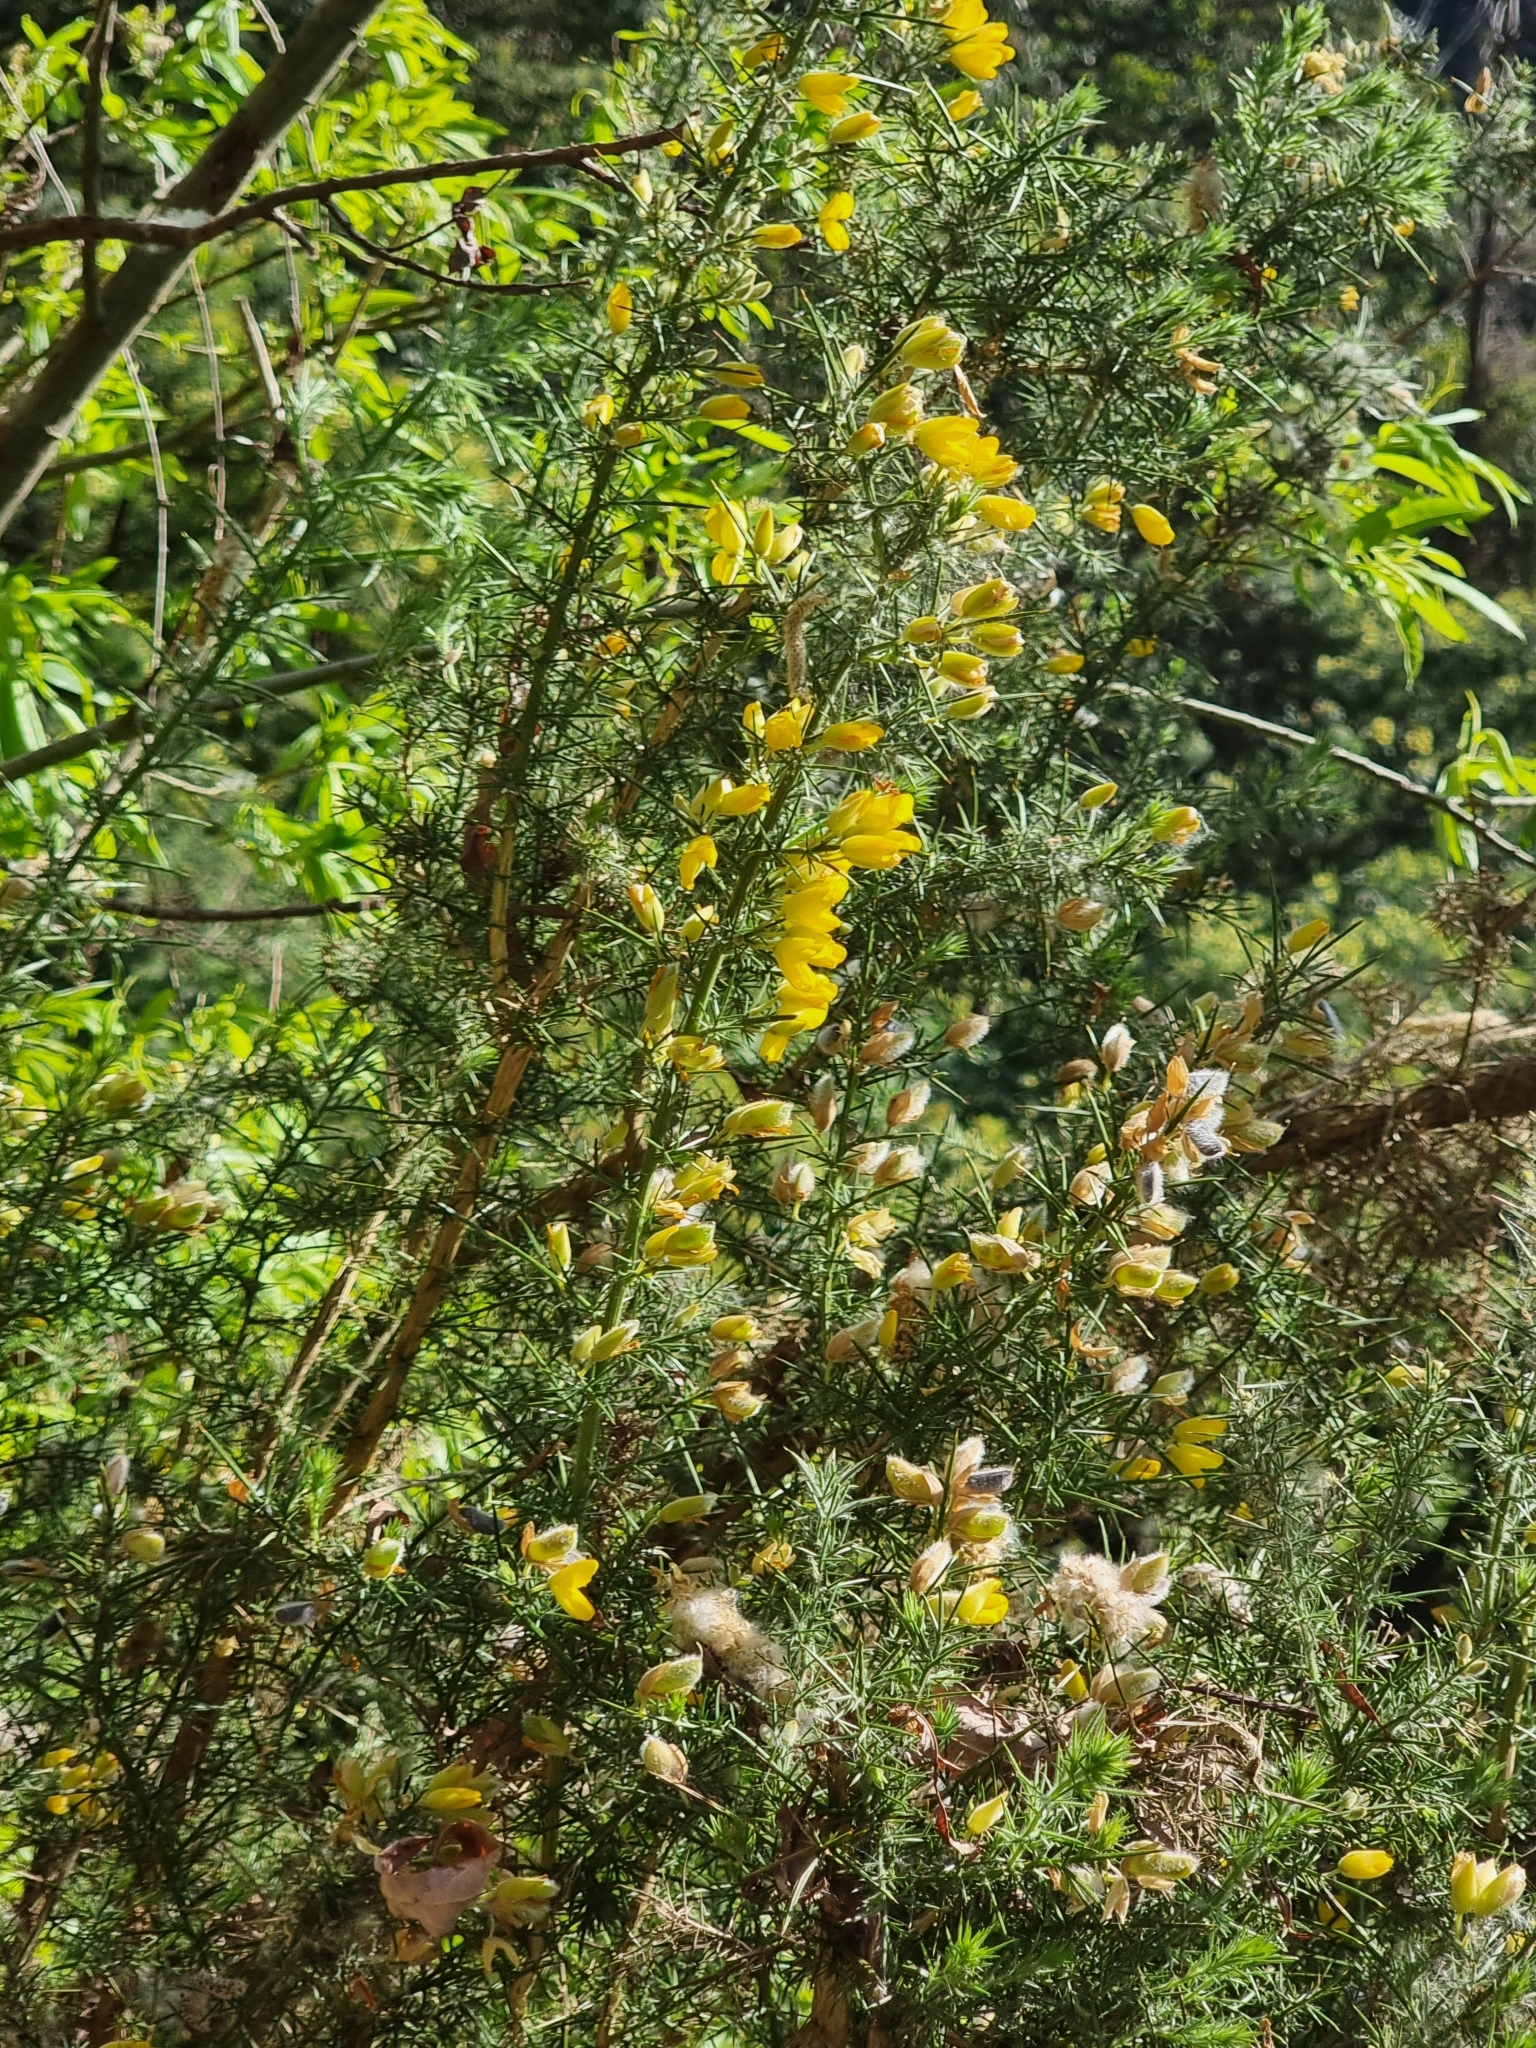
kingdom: Plantae
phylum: Tracheophyta
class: Magnoliopsida
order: Fabales
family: Fabaceae
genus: Ulex
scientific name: Ulex europaeus
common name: Common gorse
